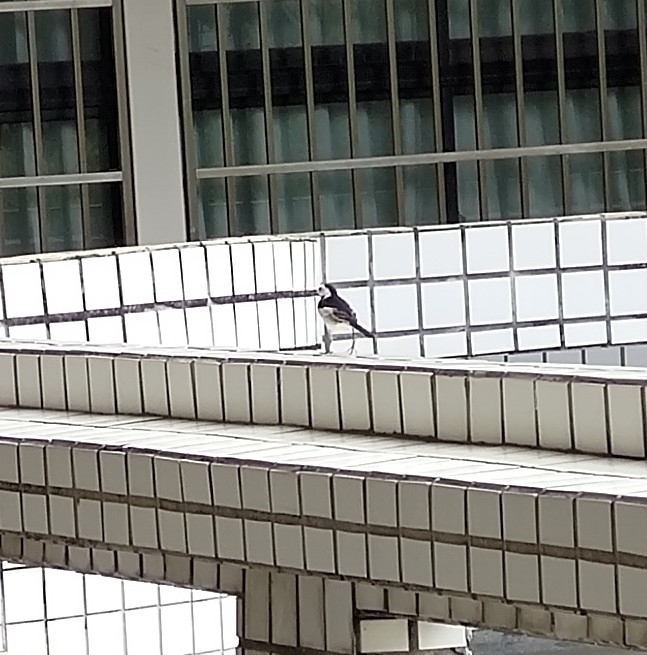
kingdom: Animalia
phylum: Chordata
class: Aves
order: Passeriformes
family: Motacillidae
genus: Motacilla
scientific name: Motacilla alba
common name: White wagtail
